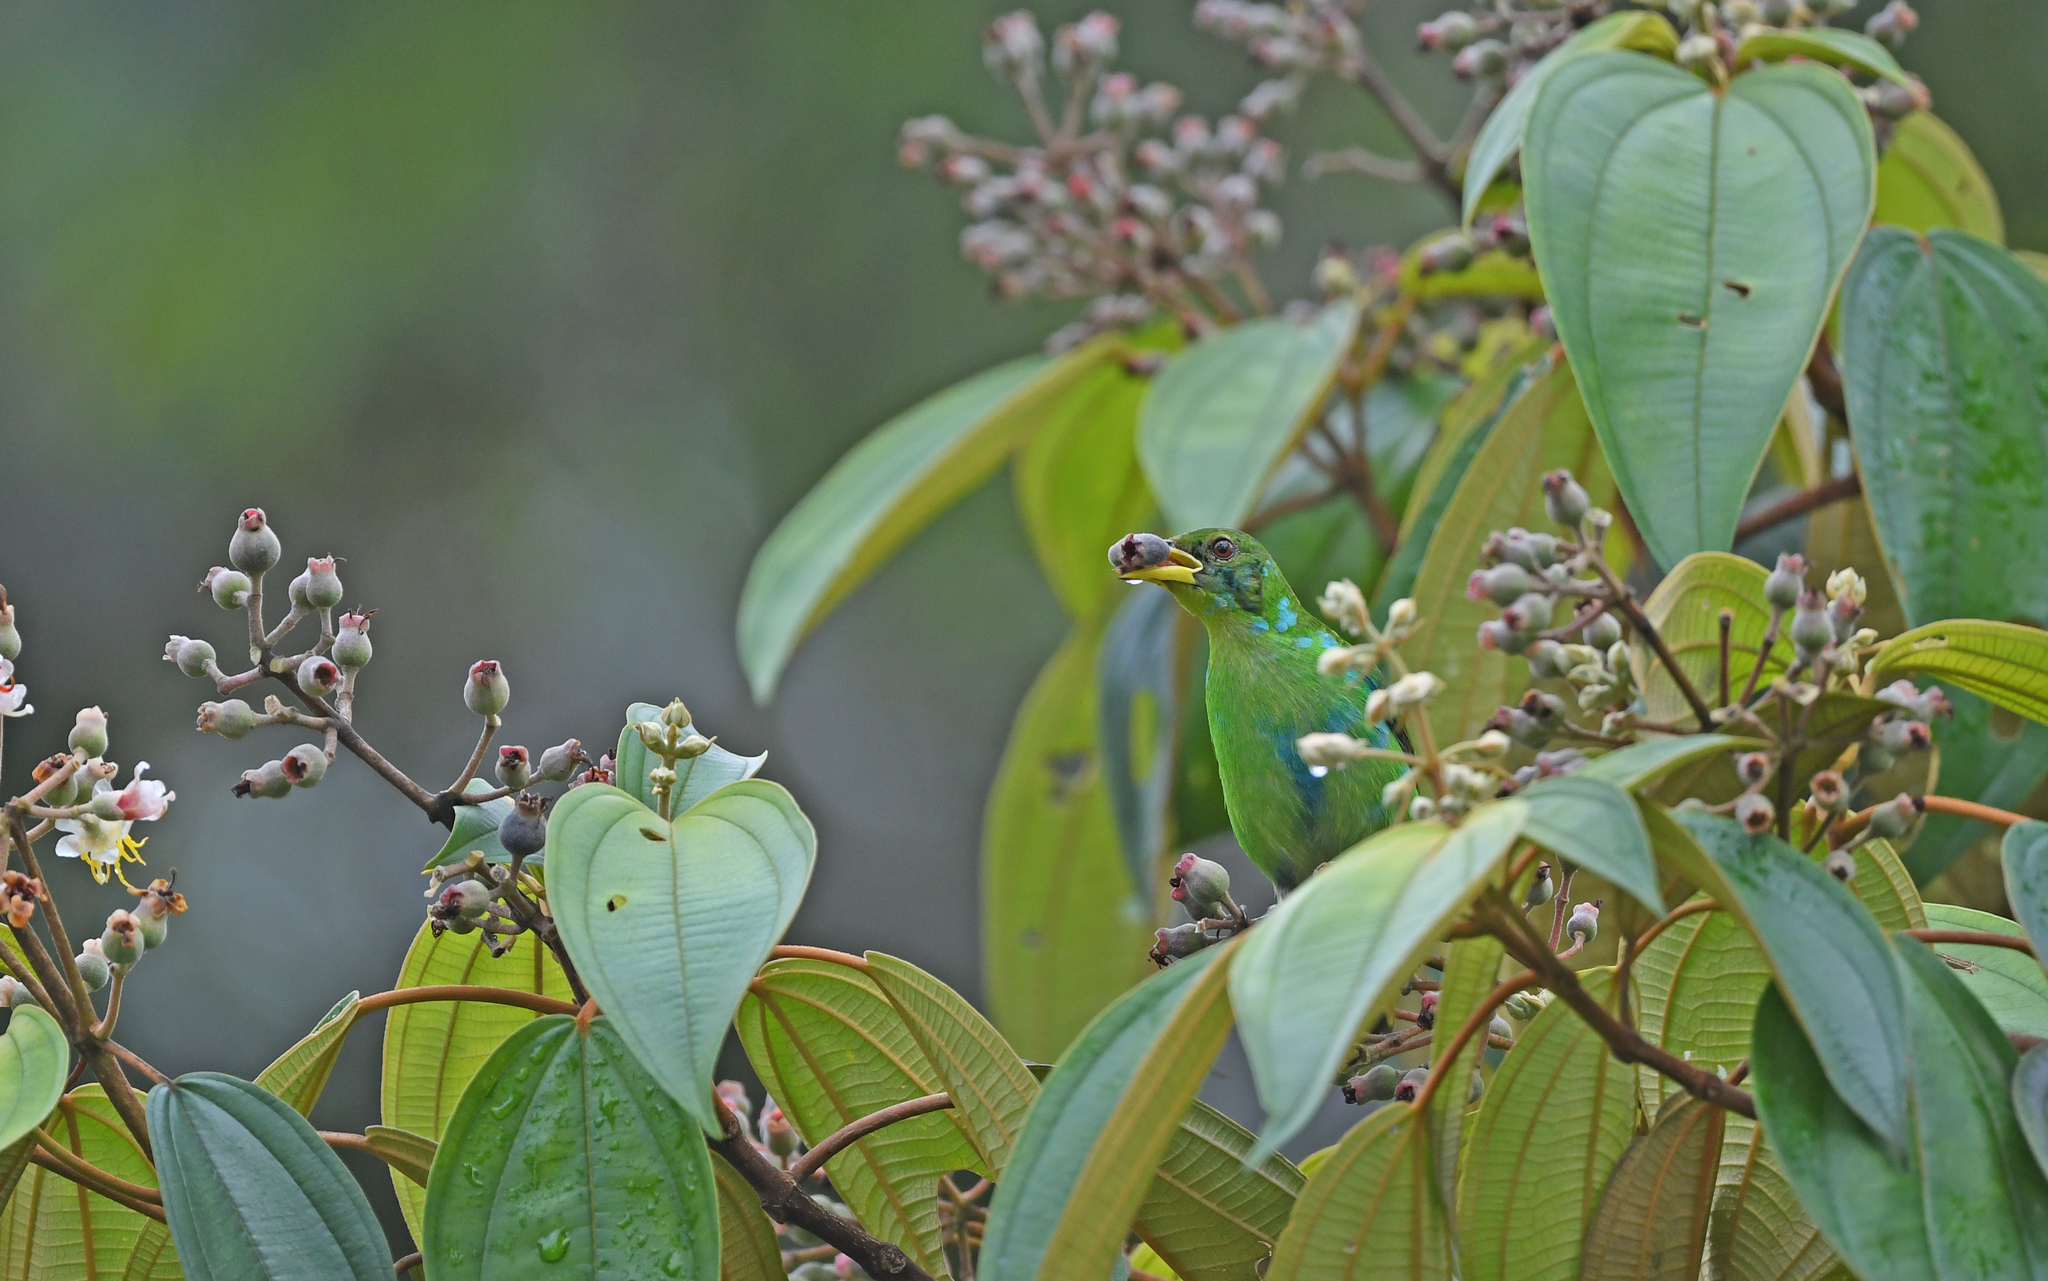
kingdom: Animalia
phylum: Chordata
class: Aves
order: Passeriformes
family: Thraupidae
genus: Chlorophanes
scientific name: Chlorophanes spiza
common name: Green honeycreeper
